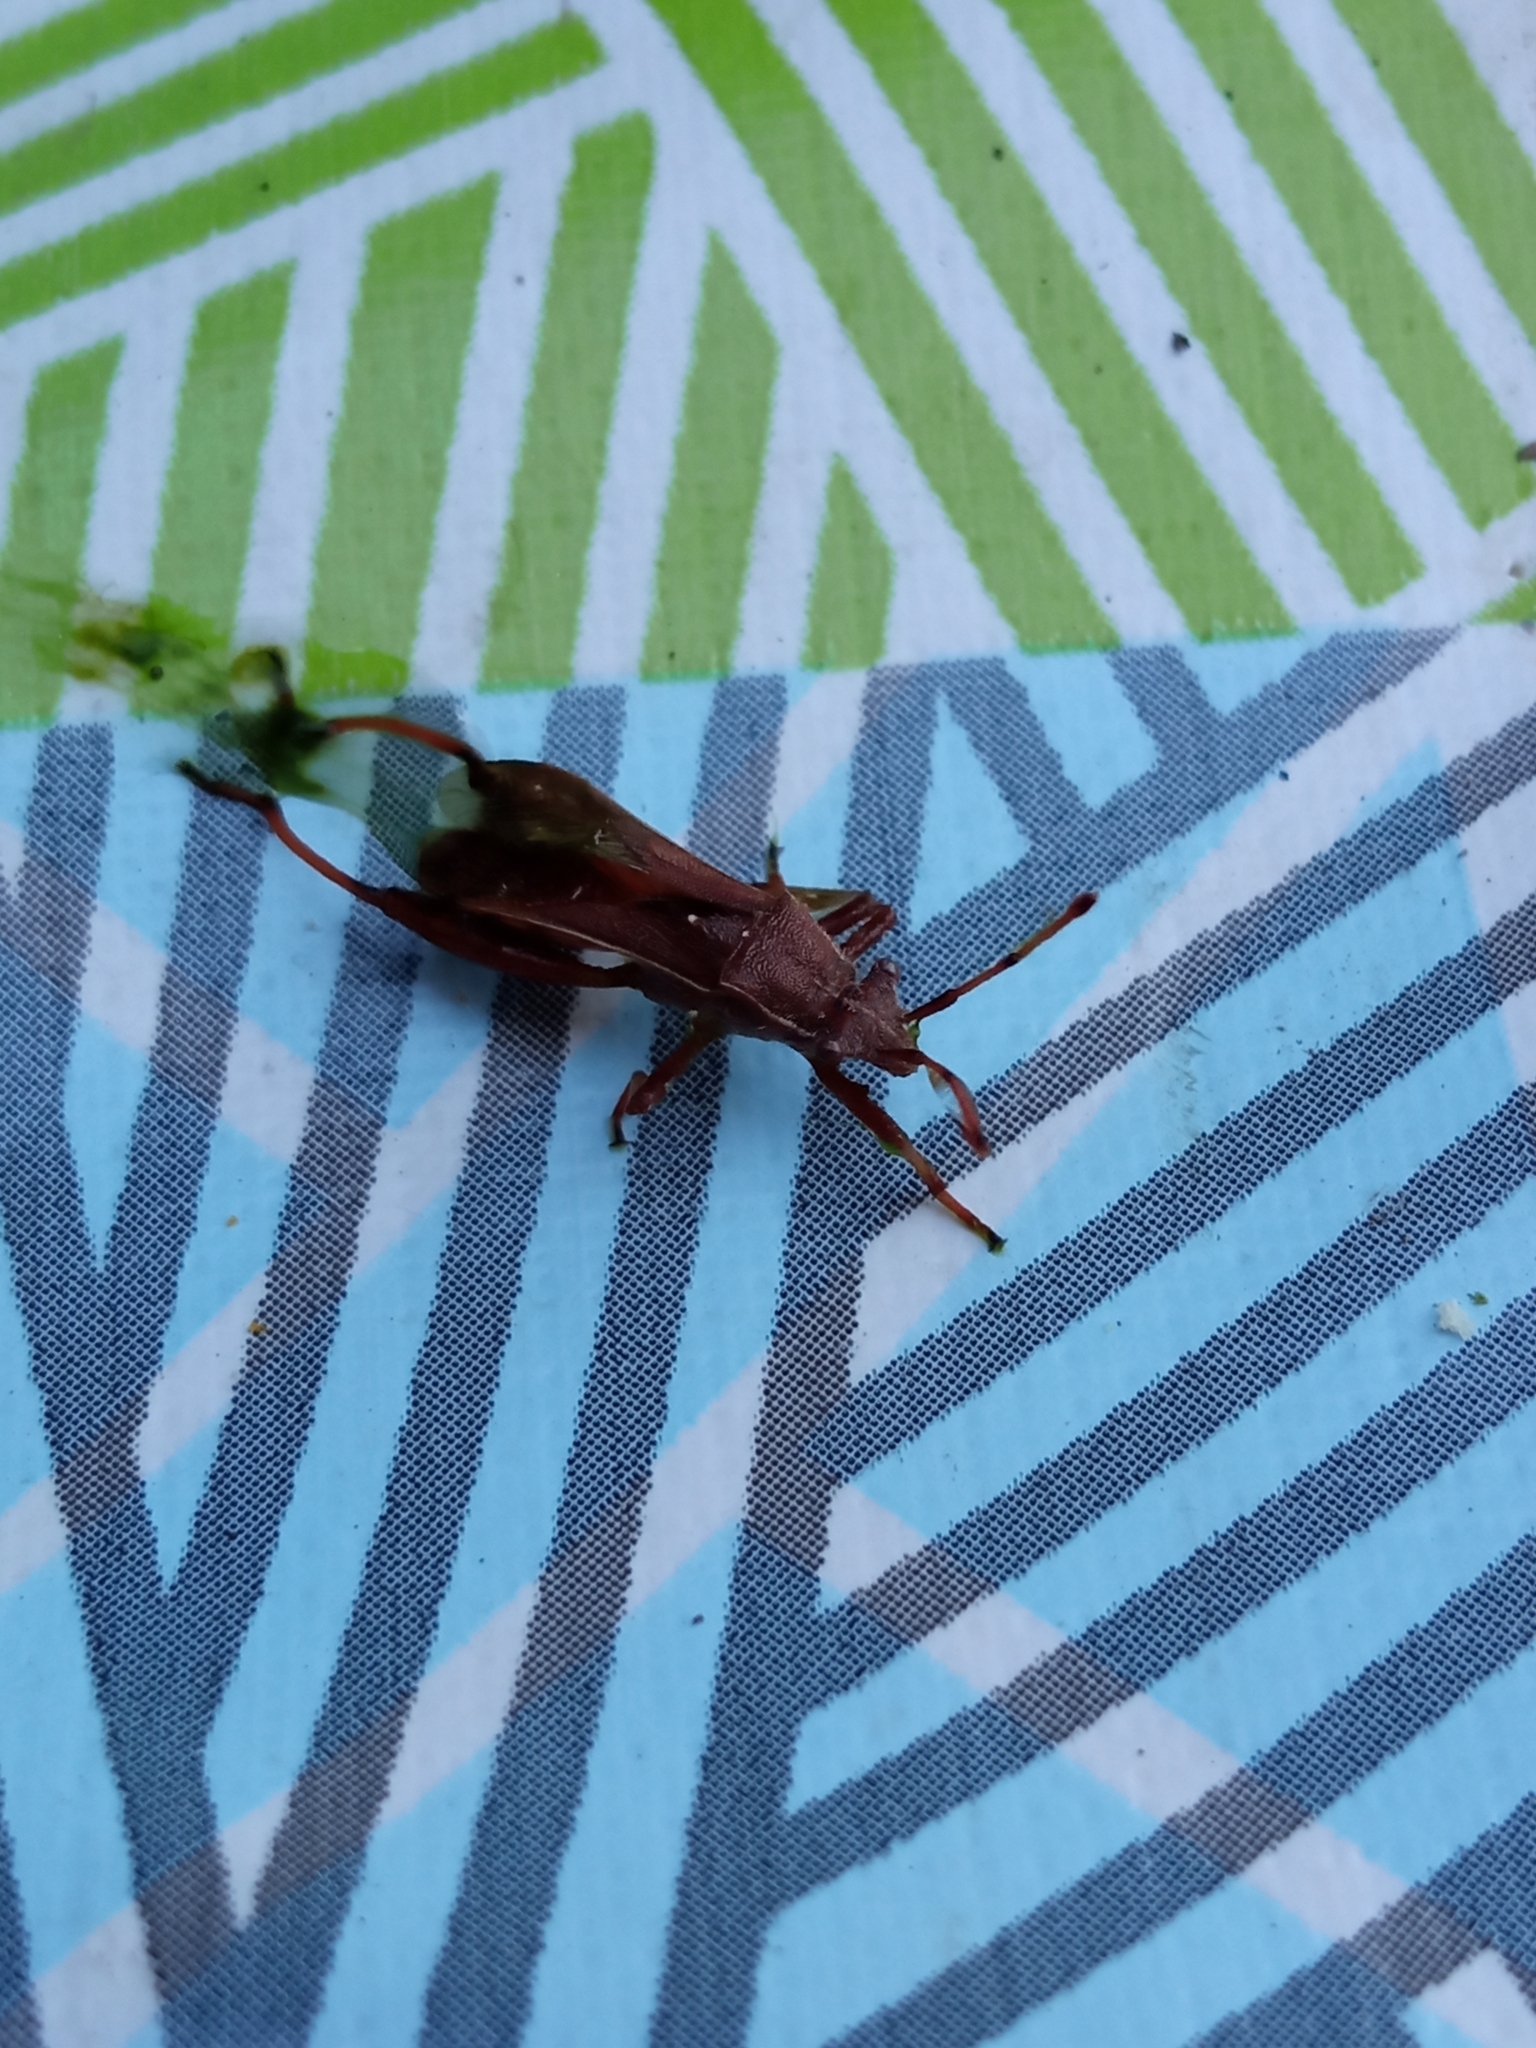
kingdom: Animalia
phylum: Arthropoda
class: Insecta
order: Hemiptera
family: Alydidae
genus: Camptopus
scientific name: Camptopus lateralis
